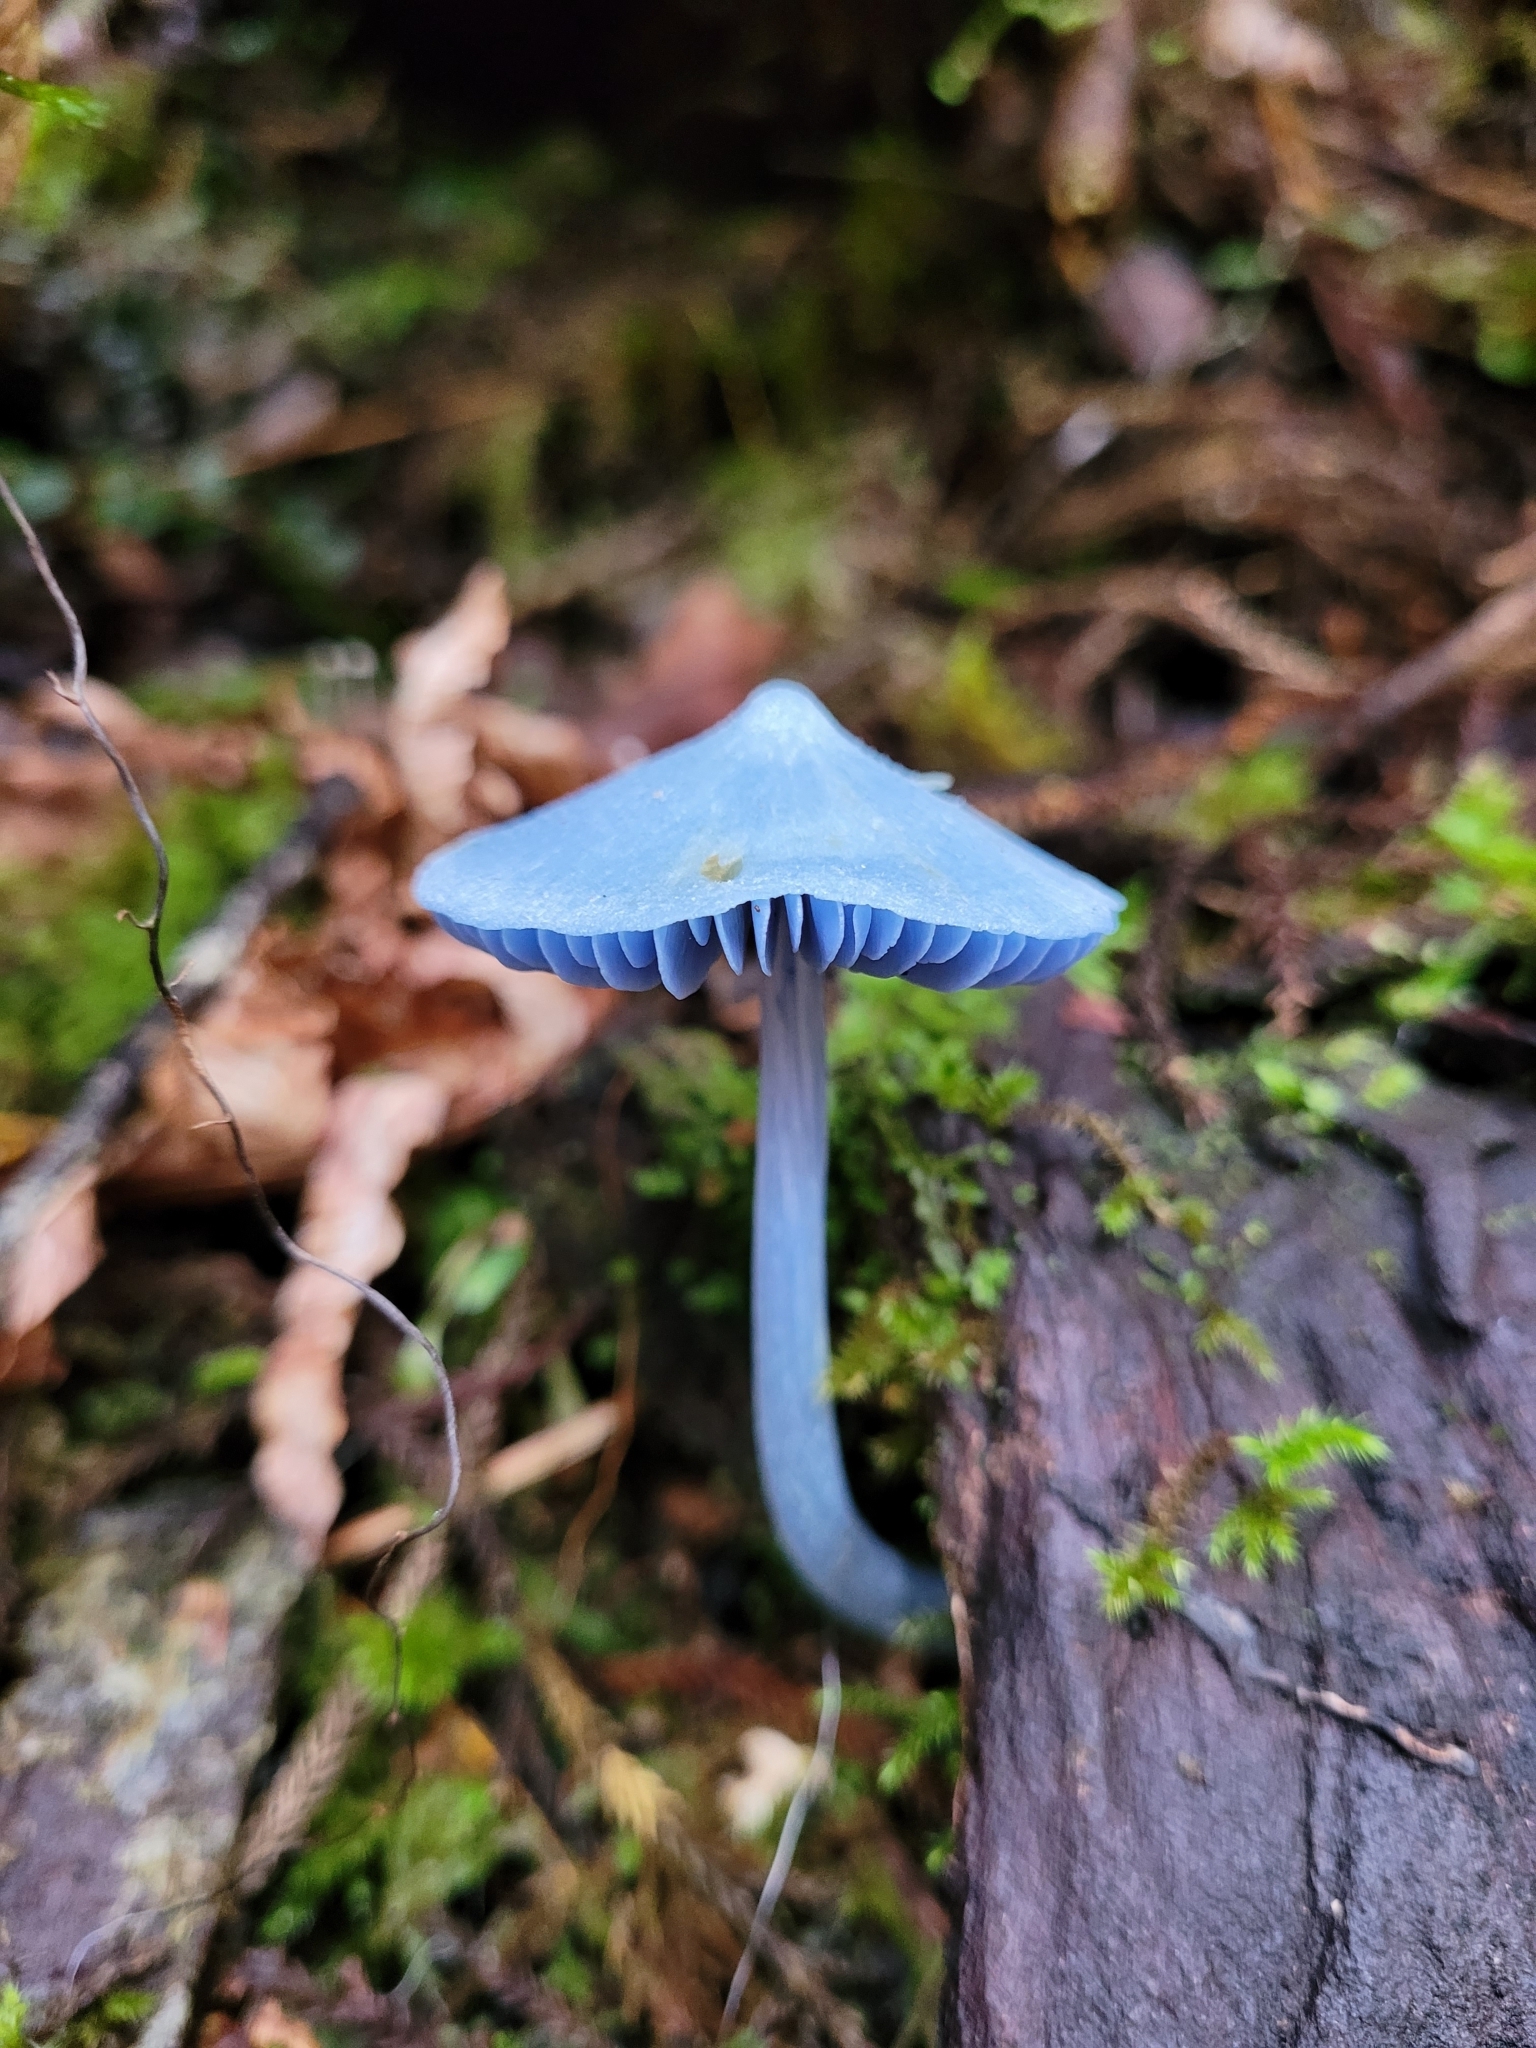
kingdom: Fungi
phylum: Basidiomycota
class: Agaricomycetes
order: Agaricales
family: Entolomataceae
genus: Entoloma
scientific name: Entoloma hochstetteri
